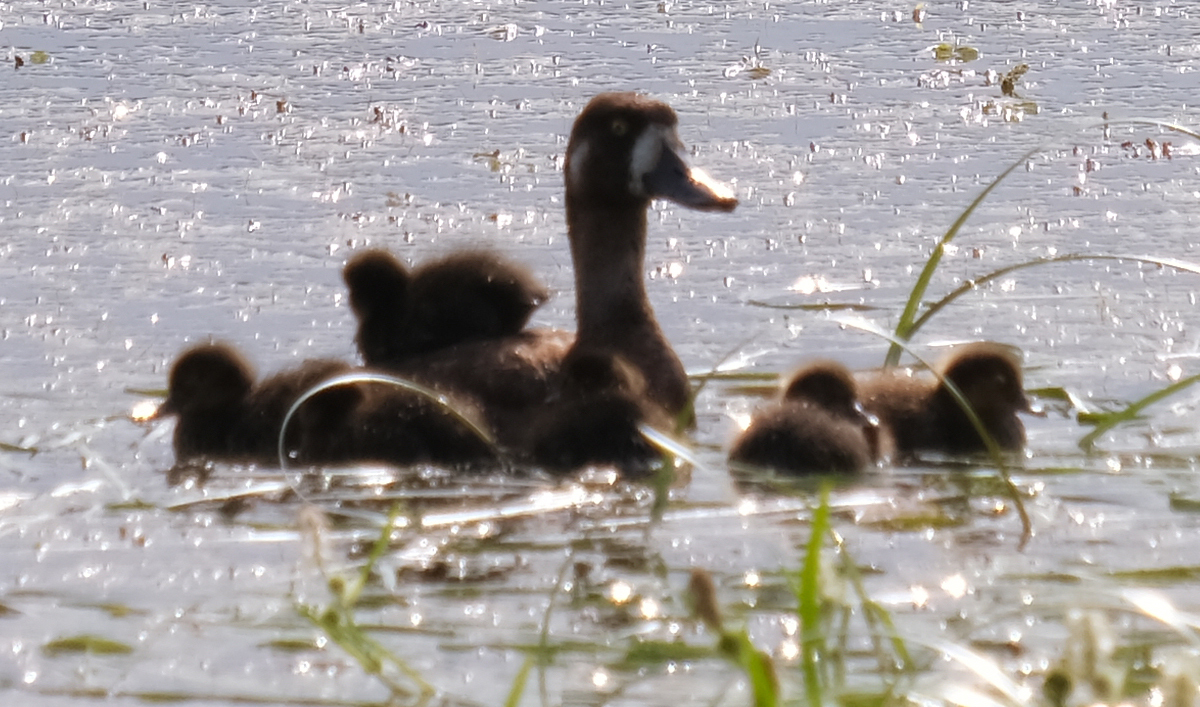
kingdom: Animalia
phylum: Chordata
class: Aves
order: Anseriformes
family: Anatidae
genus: Aythya
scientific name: Aythya marila
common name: Greater scaup
